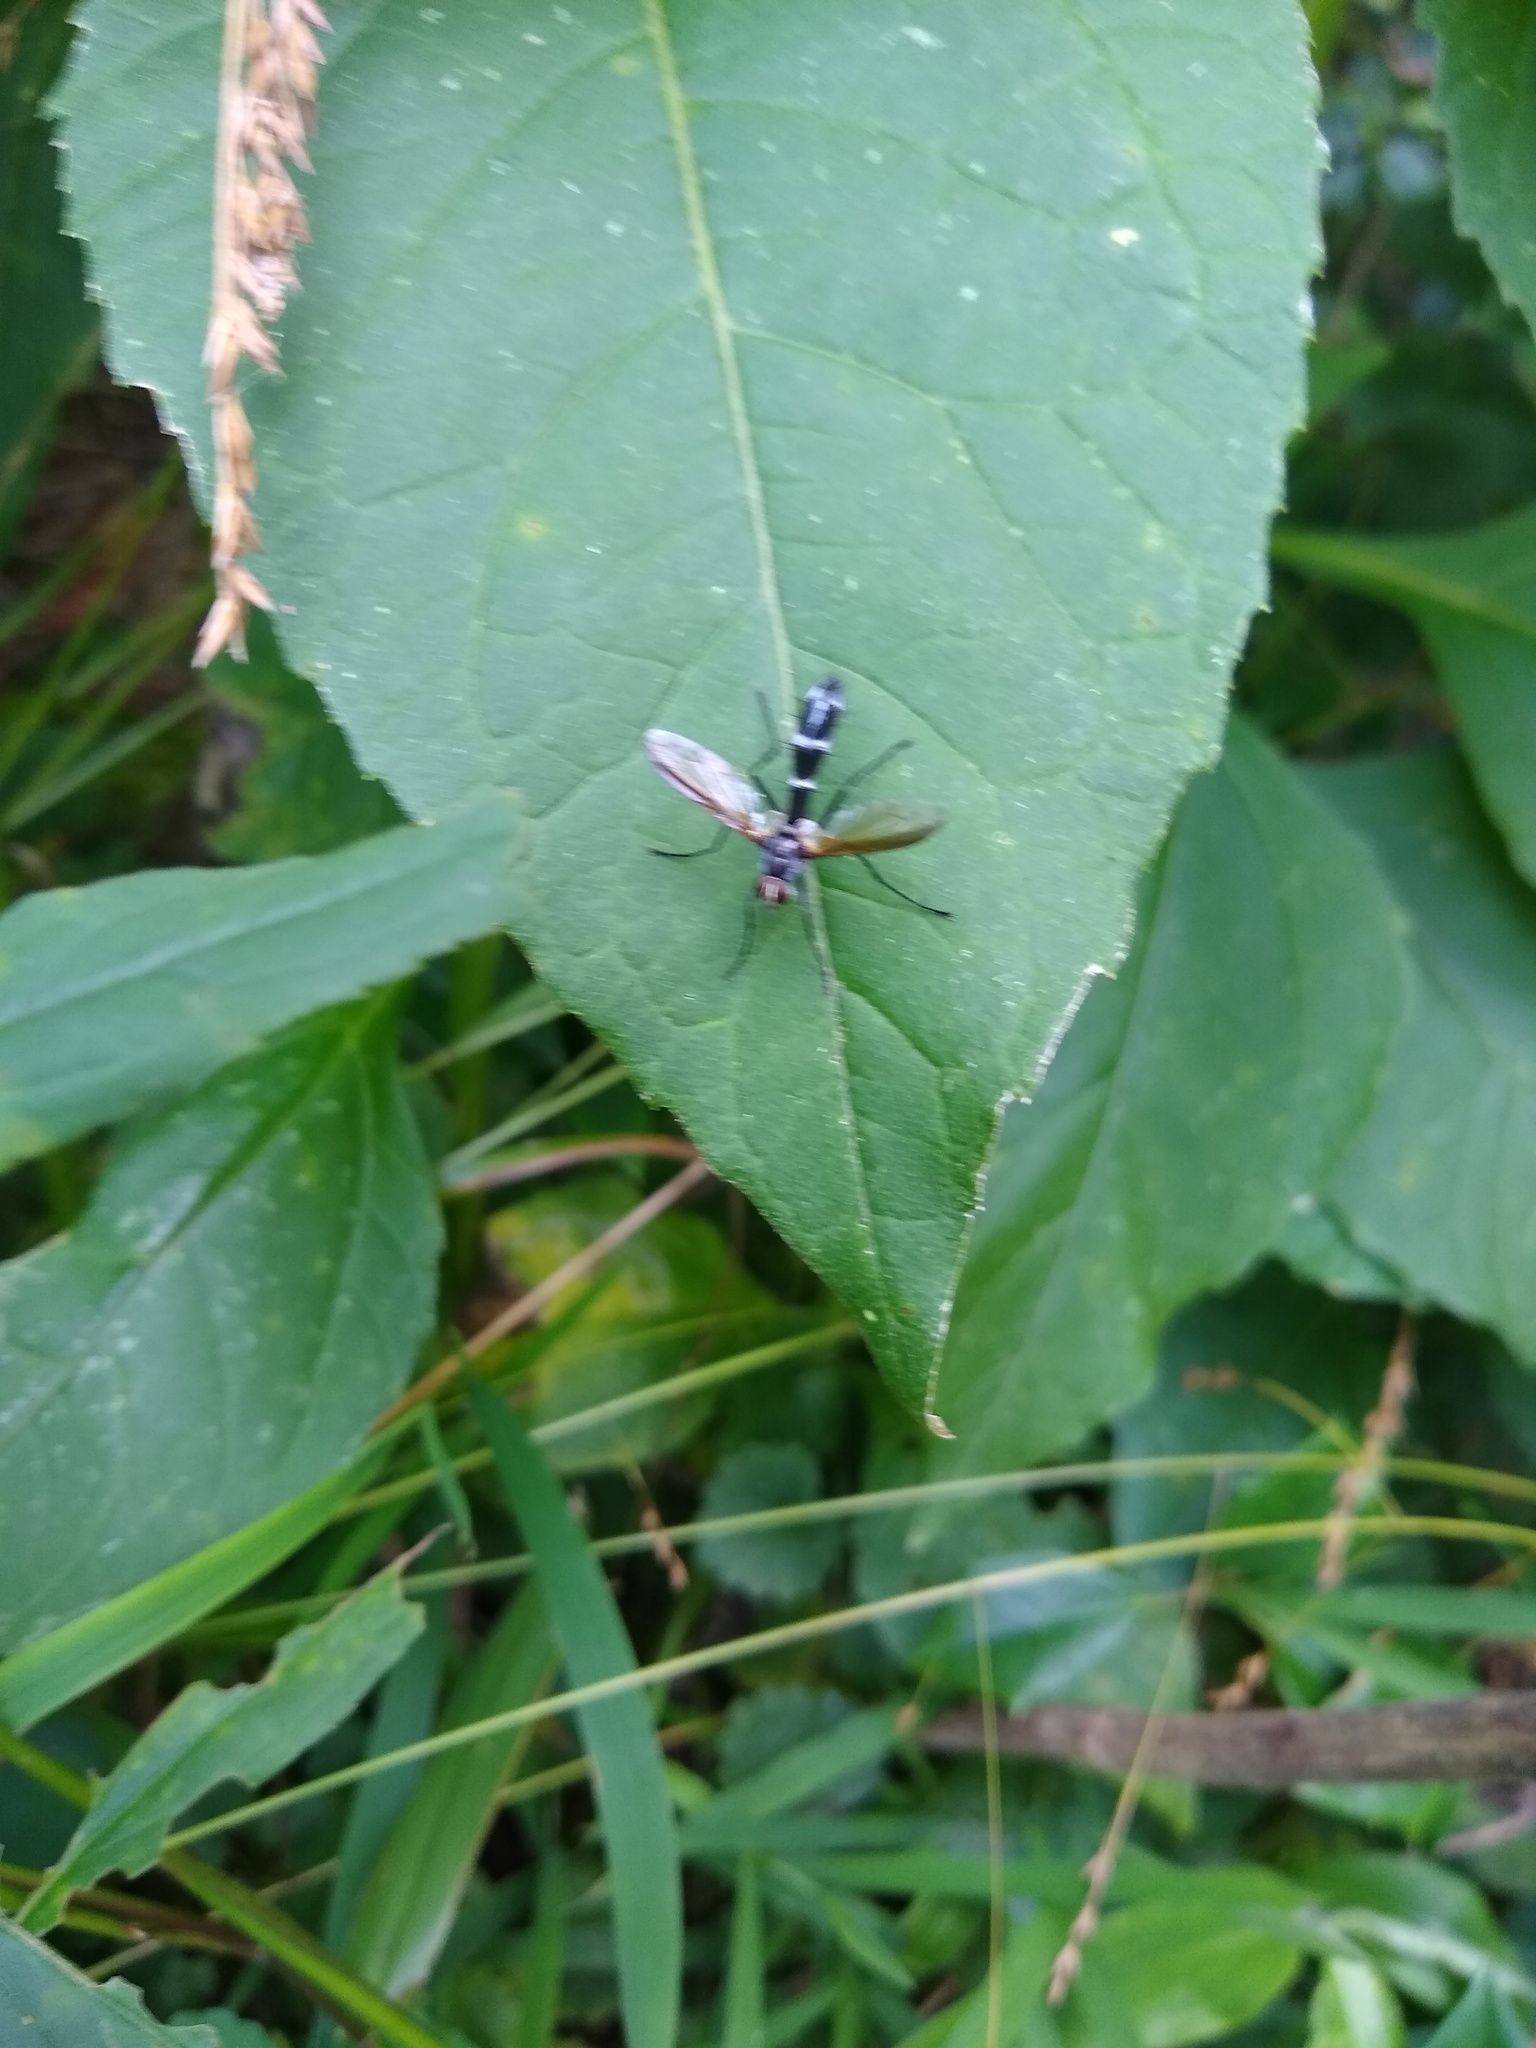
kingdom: Animalia
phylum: Arthropoda
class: Insecta
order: Diptera
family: Tachinidae
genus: Cordyligaster
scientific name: Cordyligaster septentrionalis
